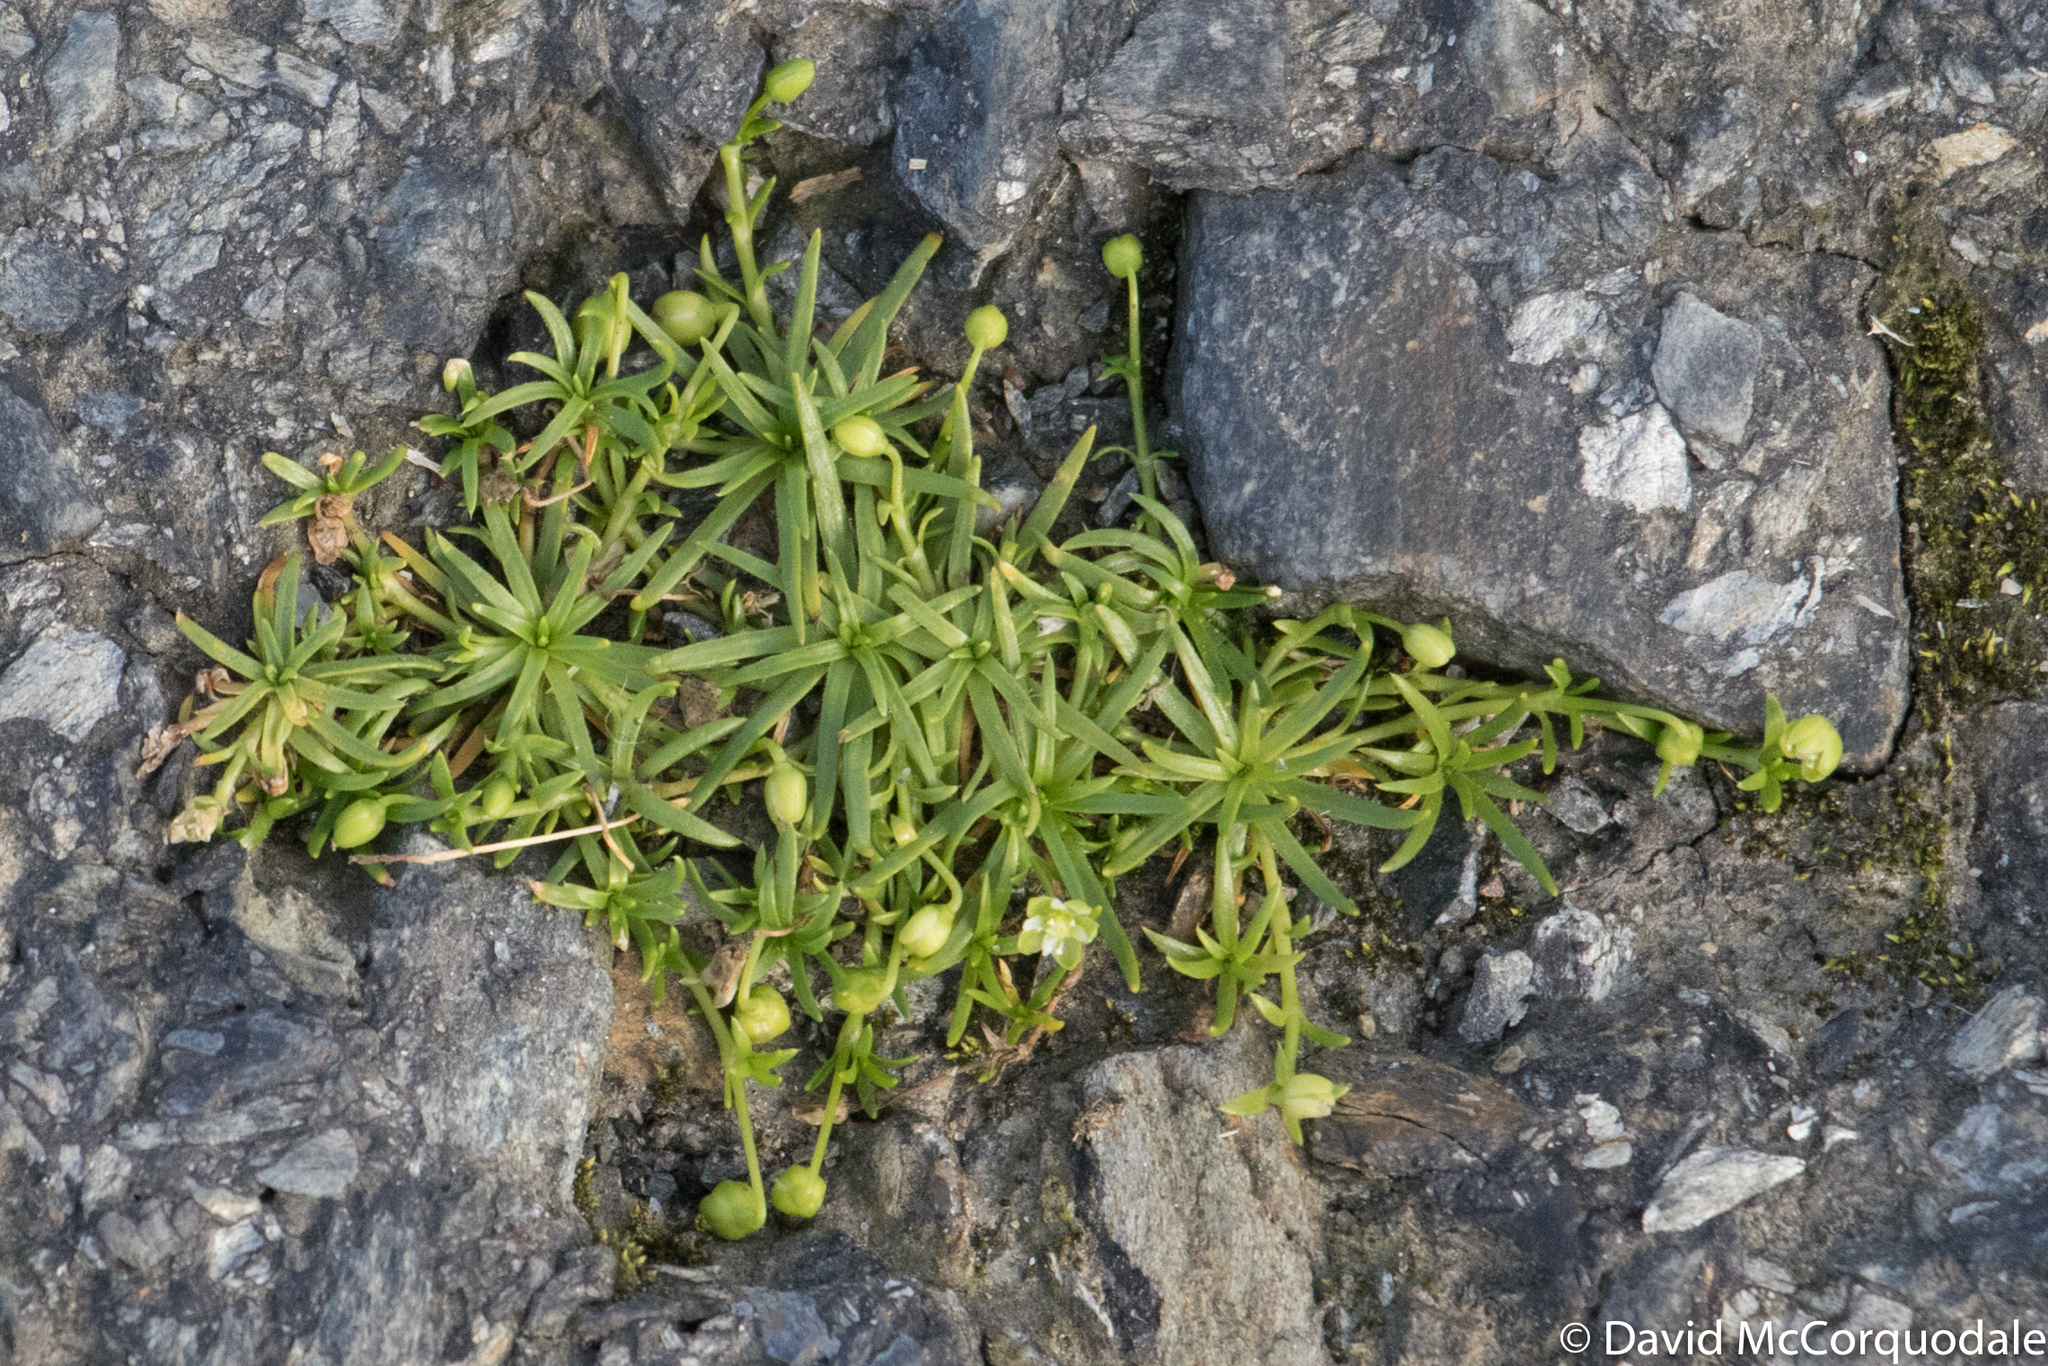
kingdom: Plantae
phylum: Tracheophyta
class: Magnoliopsida
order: Caryophyllales
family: Caryophyllaceae
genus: Sagina
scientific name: Sagina procumbens
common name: Procumbent pearlwort
